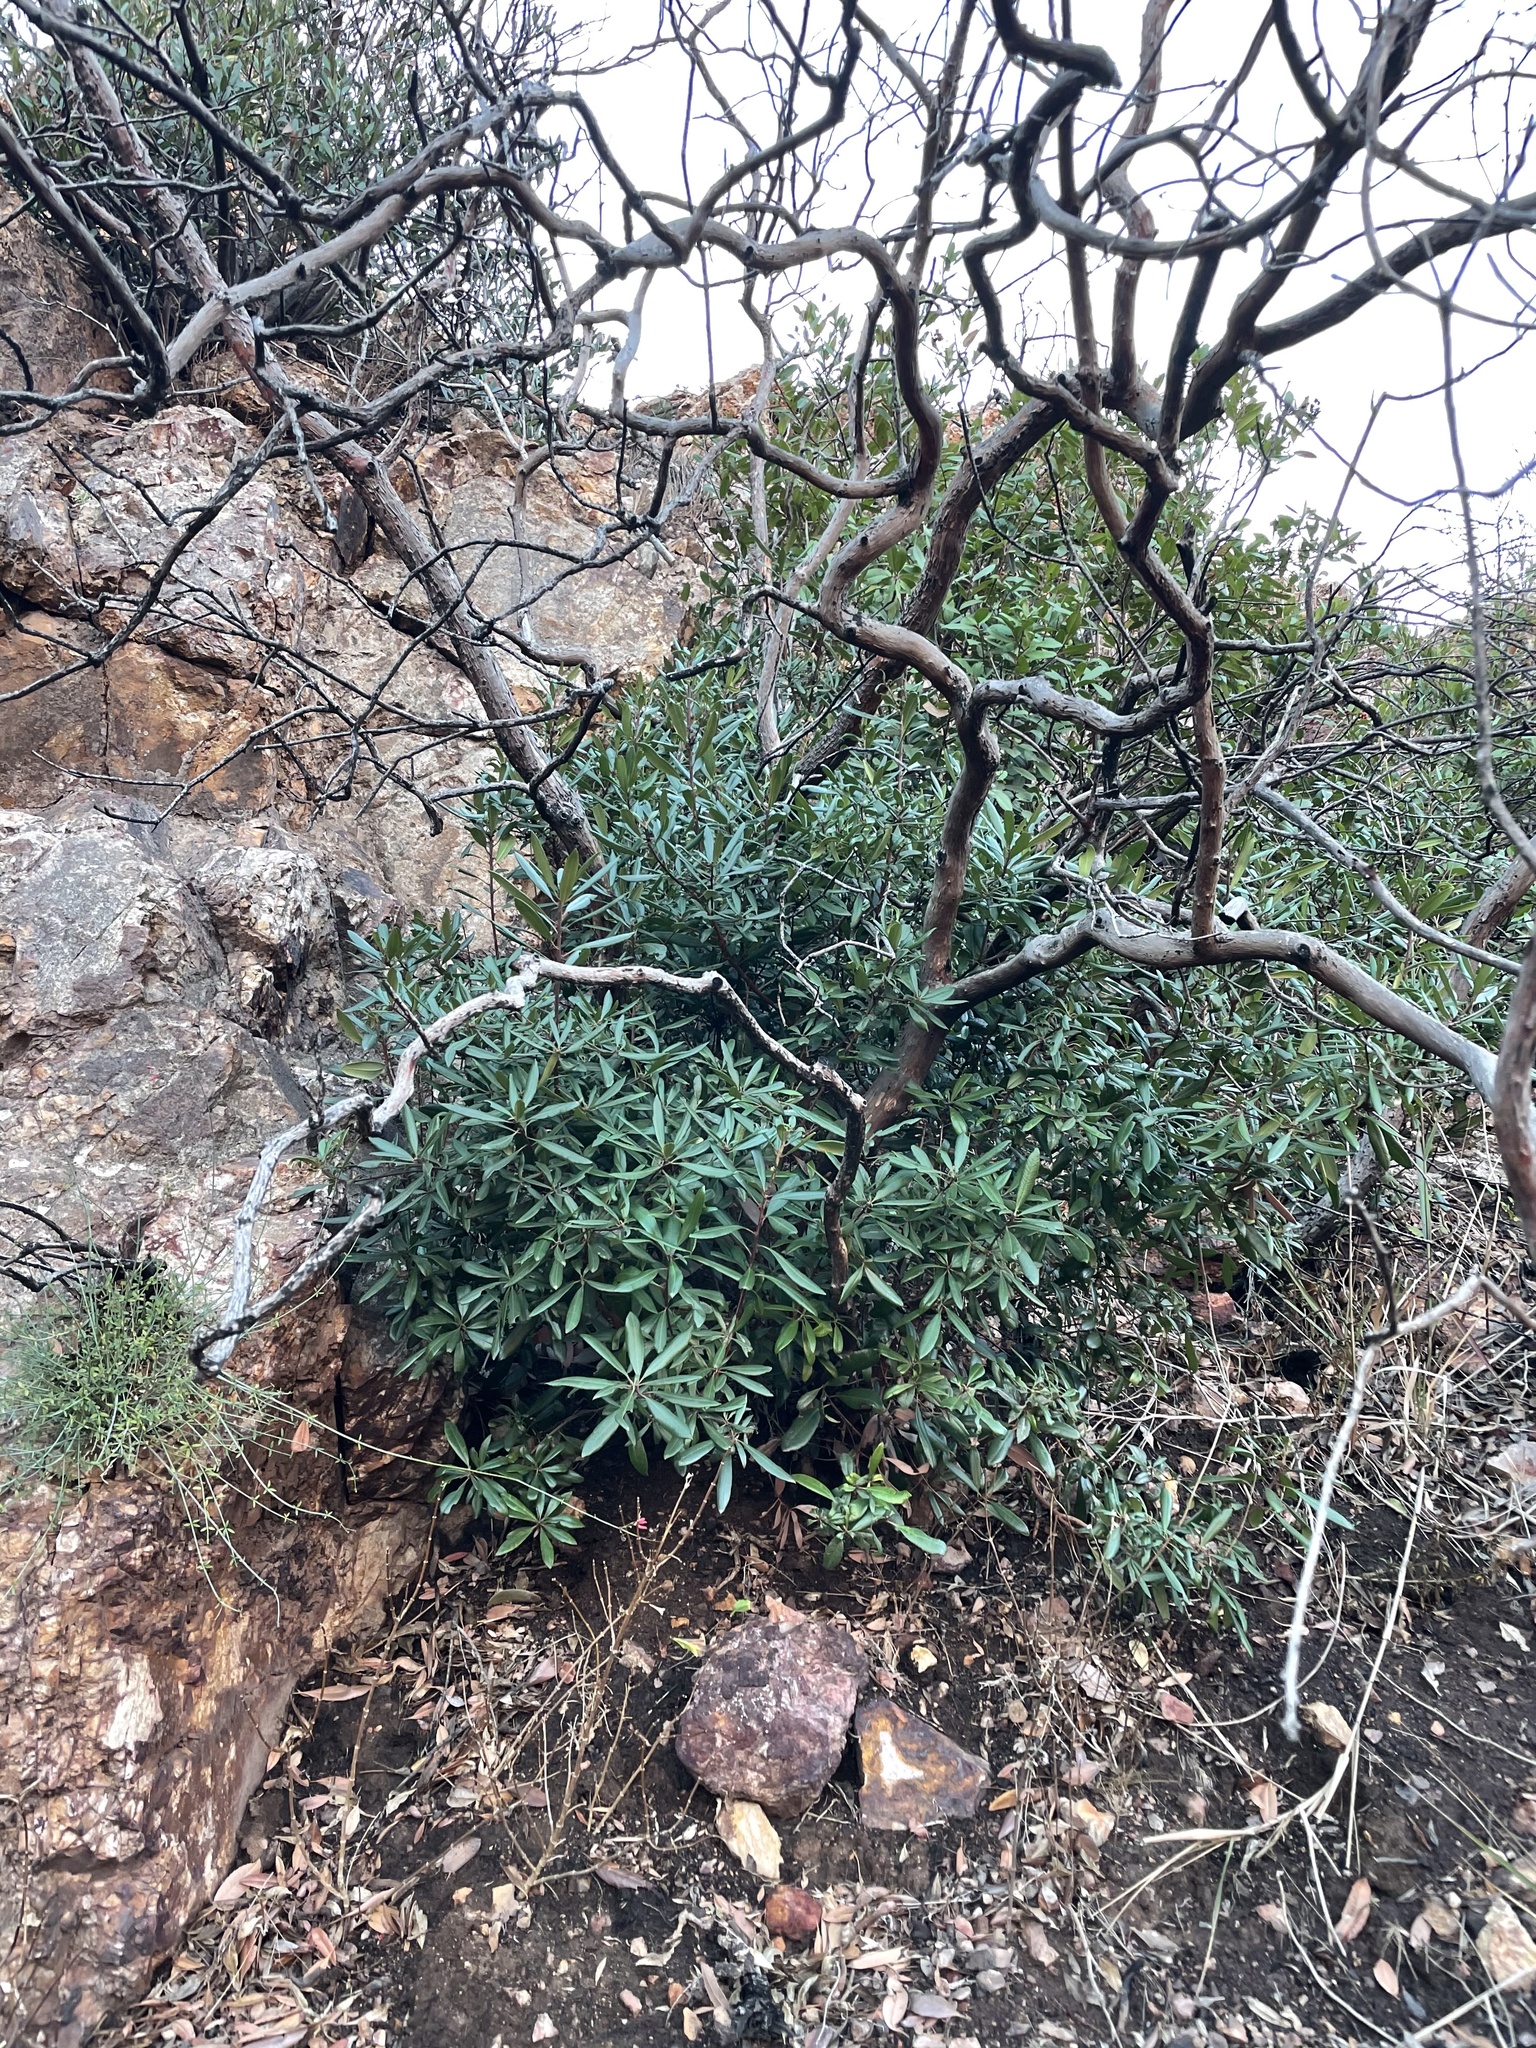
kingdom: Plantae
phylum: Tracheophyta
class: Magnoliopsida
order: Ericales
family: Ericaceae
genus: Comarostaphylis
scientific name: Comarostaphylis diversifolia
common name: Summer-holly
